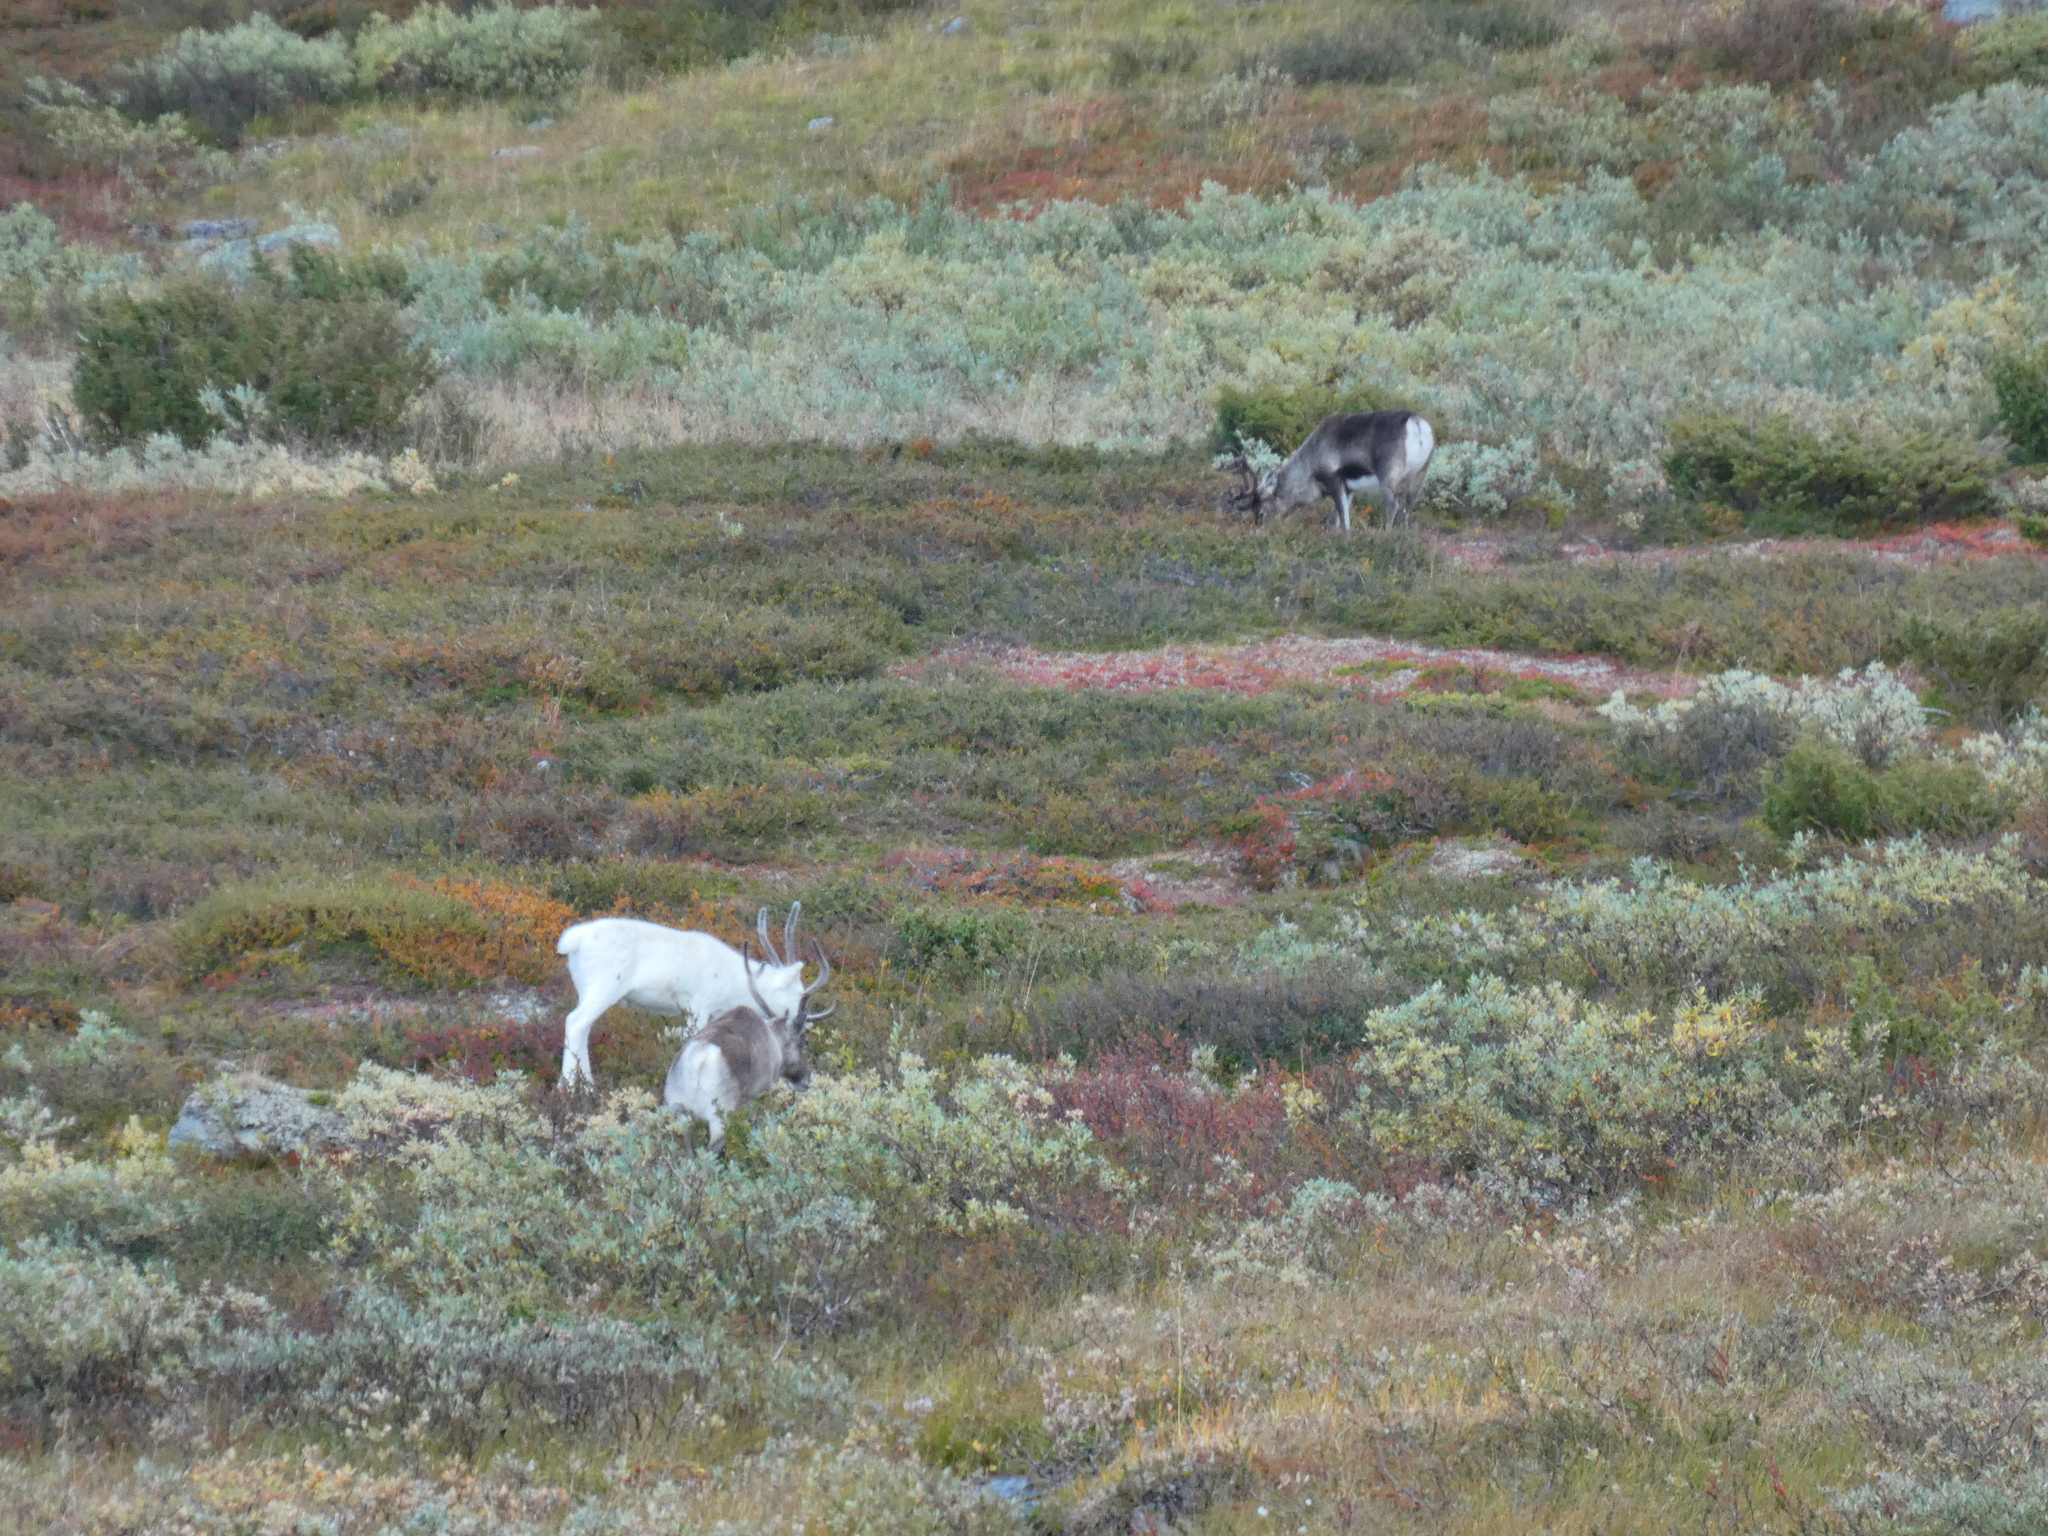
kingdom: Animalia
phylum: Chordata
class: Mammalia
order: Artiodactyla
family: Cervidae
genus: Rangifer
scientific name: Rangifer tarandus
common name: Reindeer
